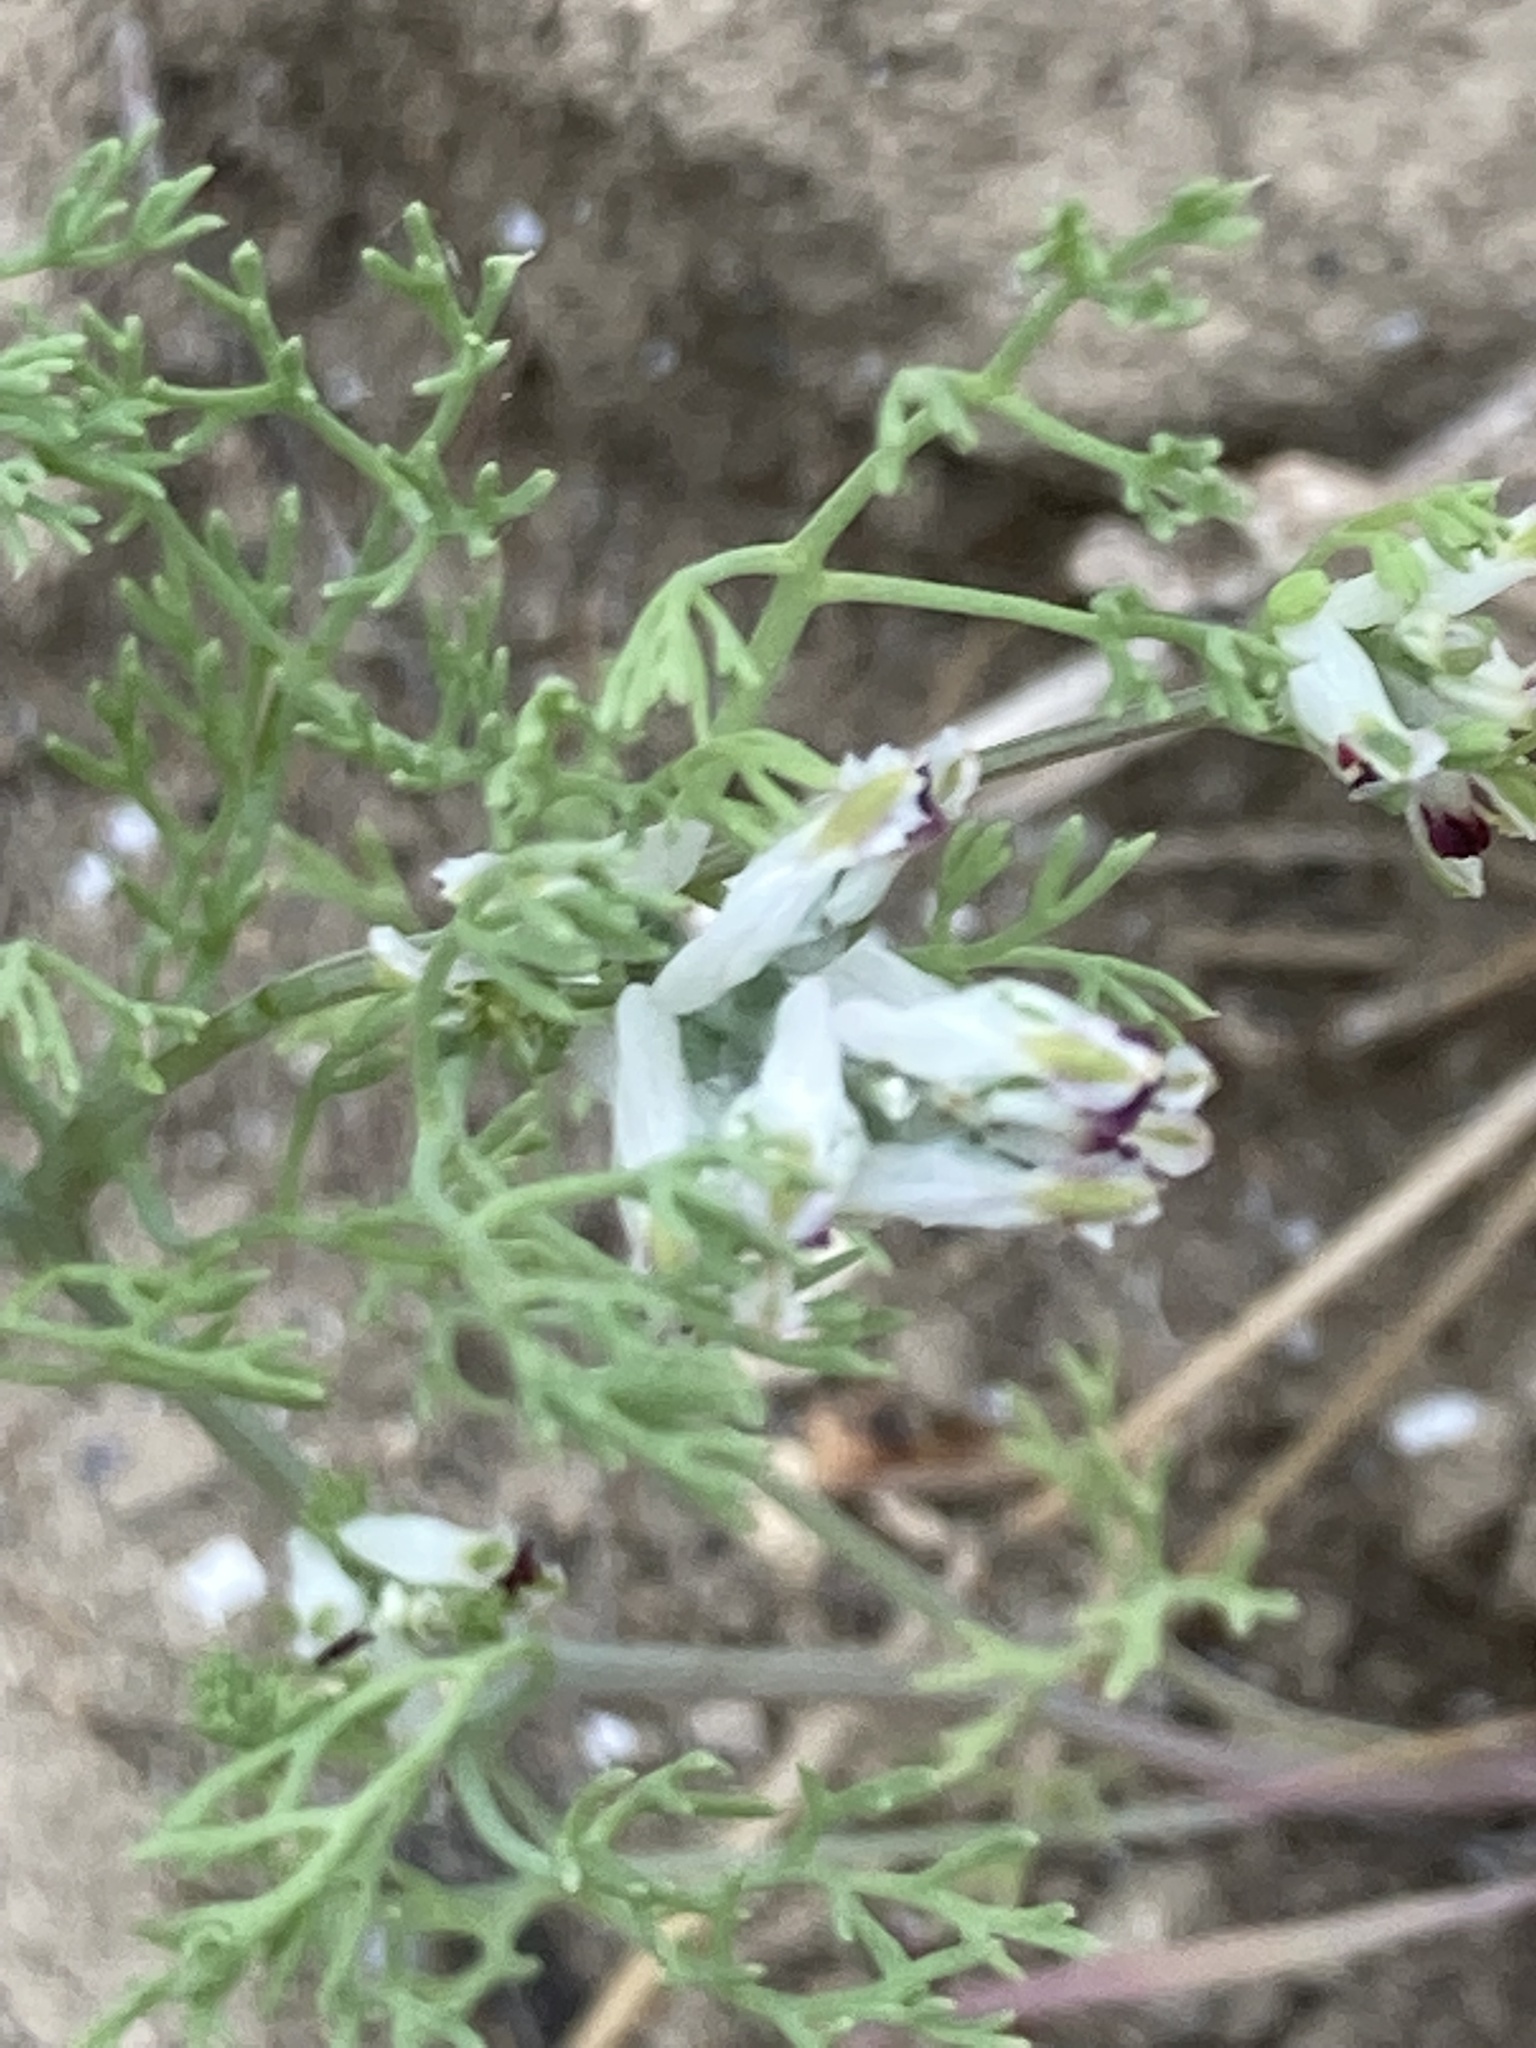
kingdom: Plantae
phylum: Tracheophyta
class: Magnoliopsida
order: Ranunculales
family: Papaveraceae
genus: Fumaria
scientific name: Fumaria parviflora
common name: Fine-leaved fumitory
